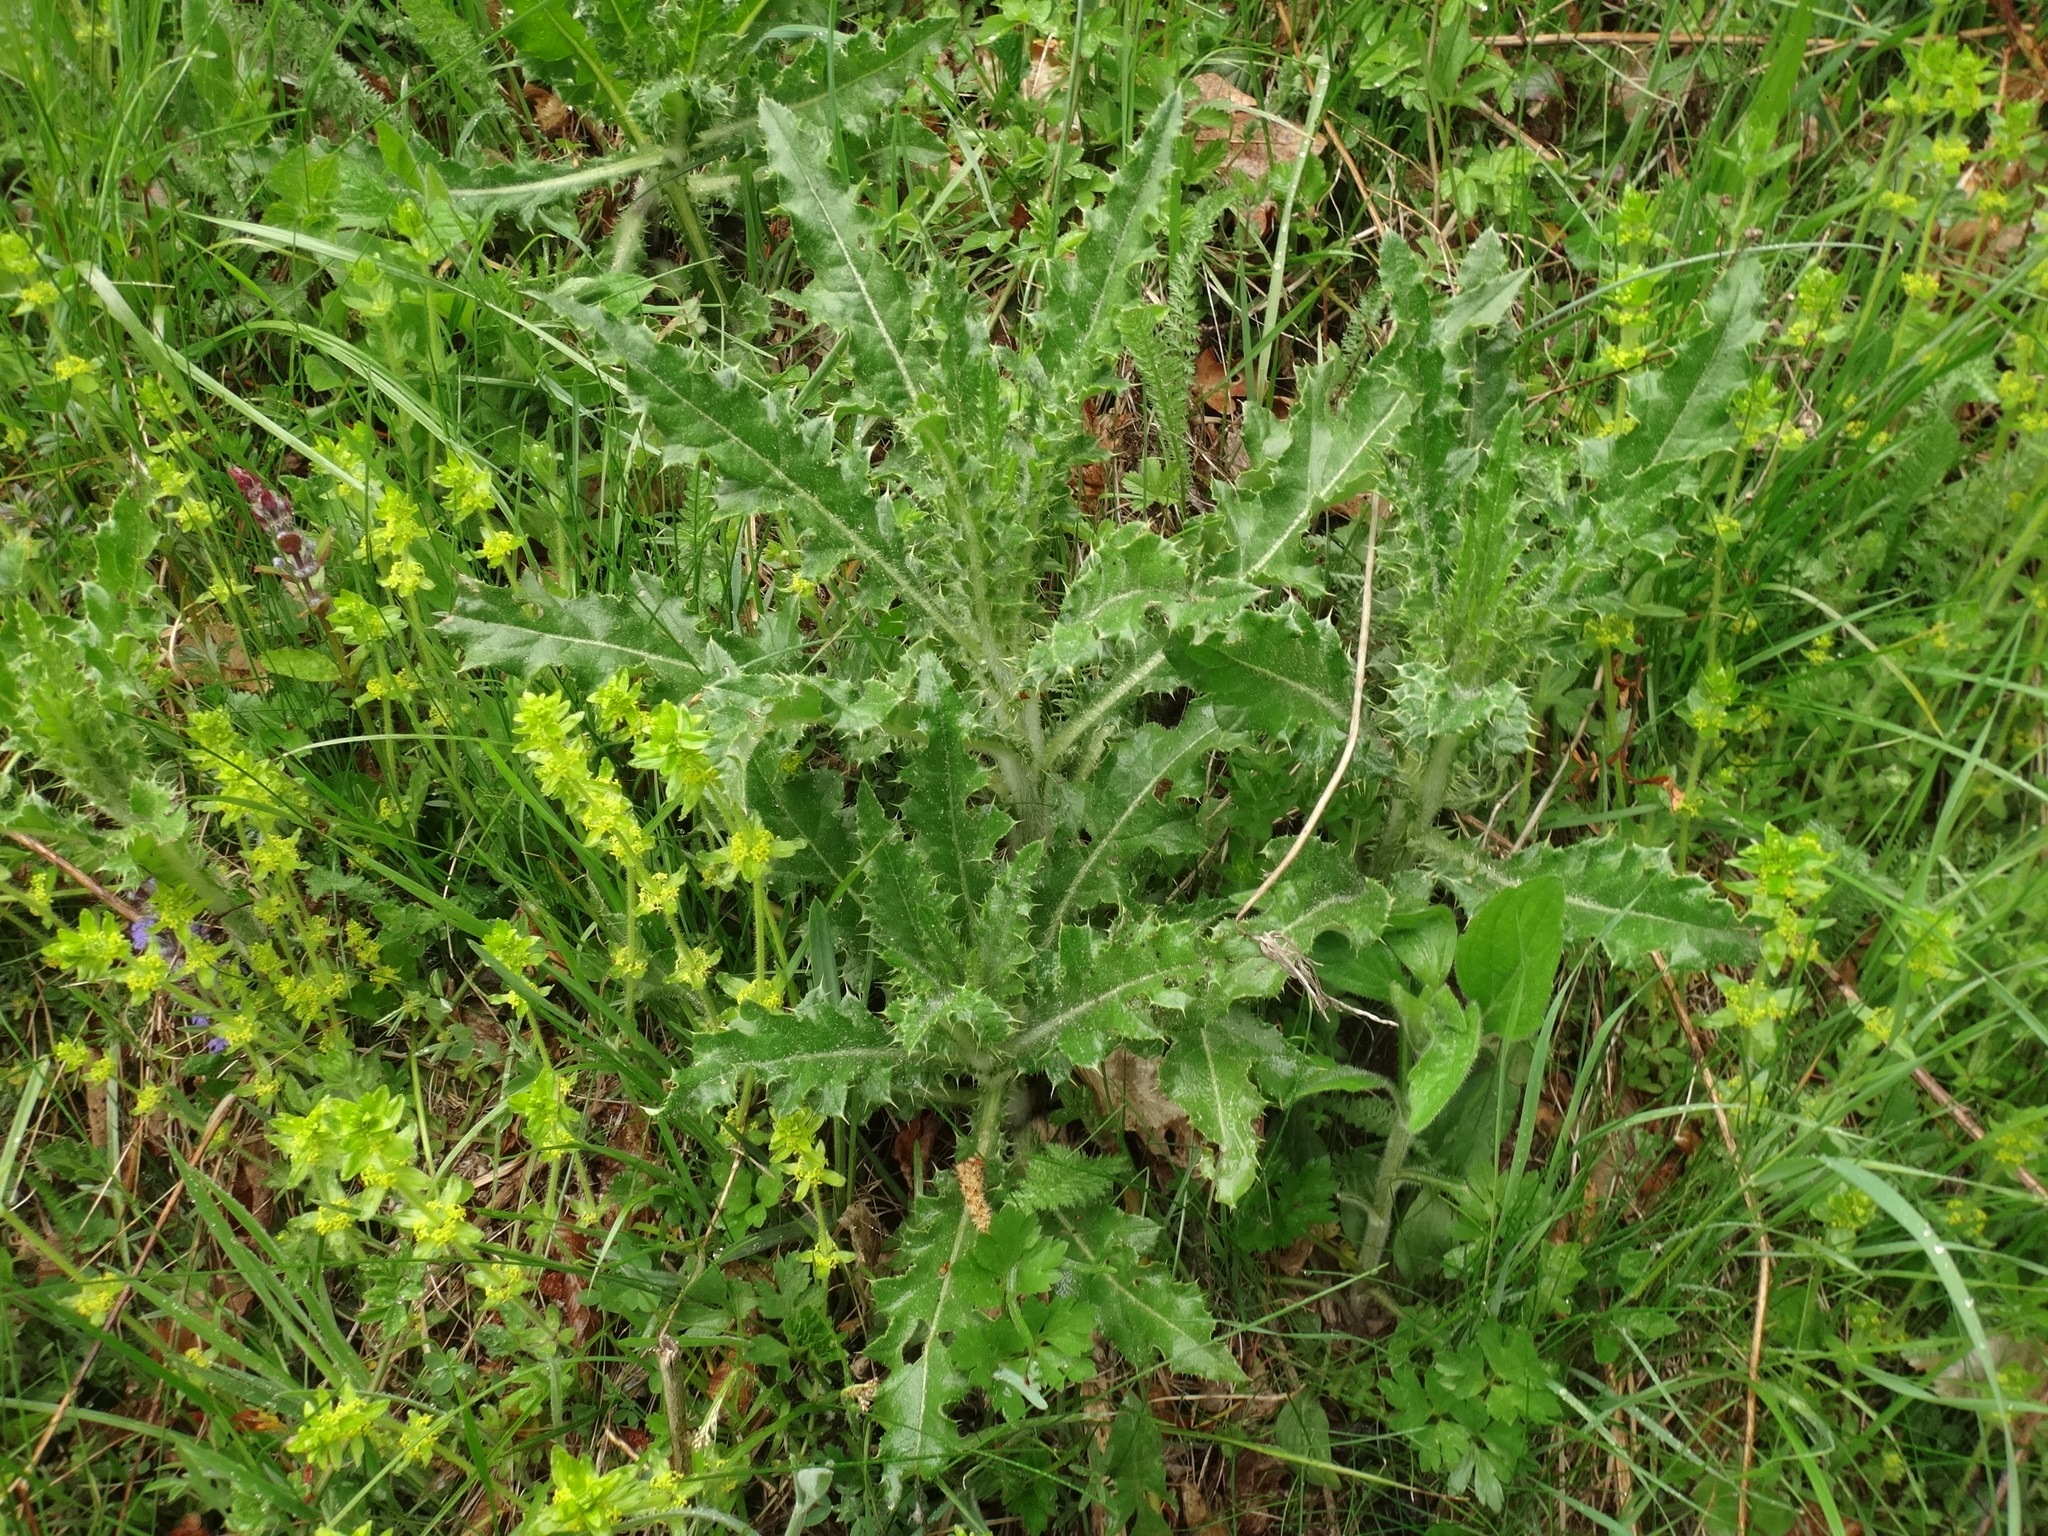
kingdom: Plantae
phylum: Tracheophyta
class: Magnoliopsida
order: Asterales
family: Asteraceae
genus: Cirsium
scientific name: Cirsium arvense
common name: Creeping thistle
